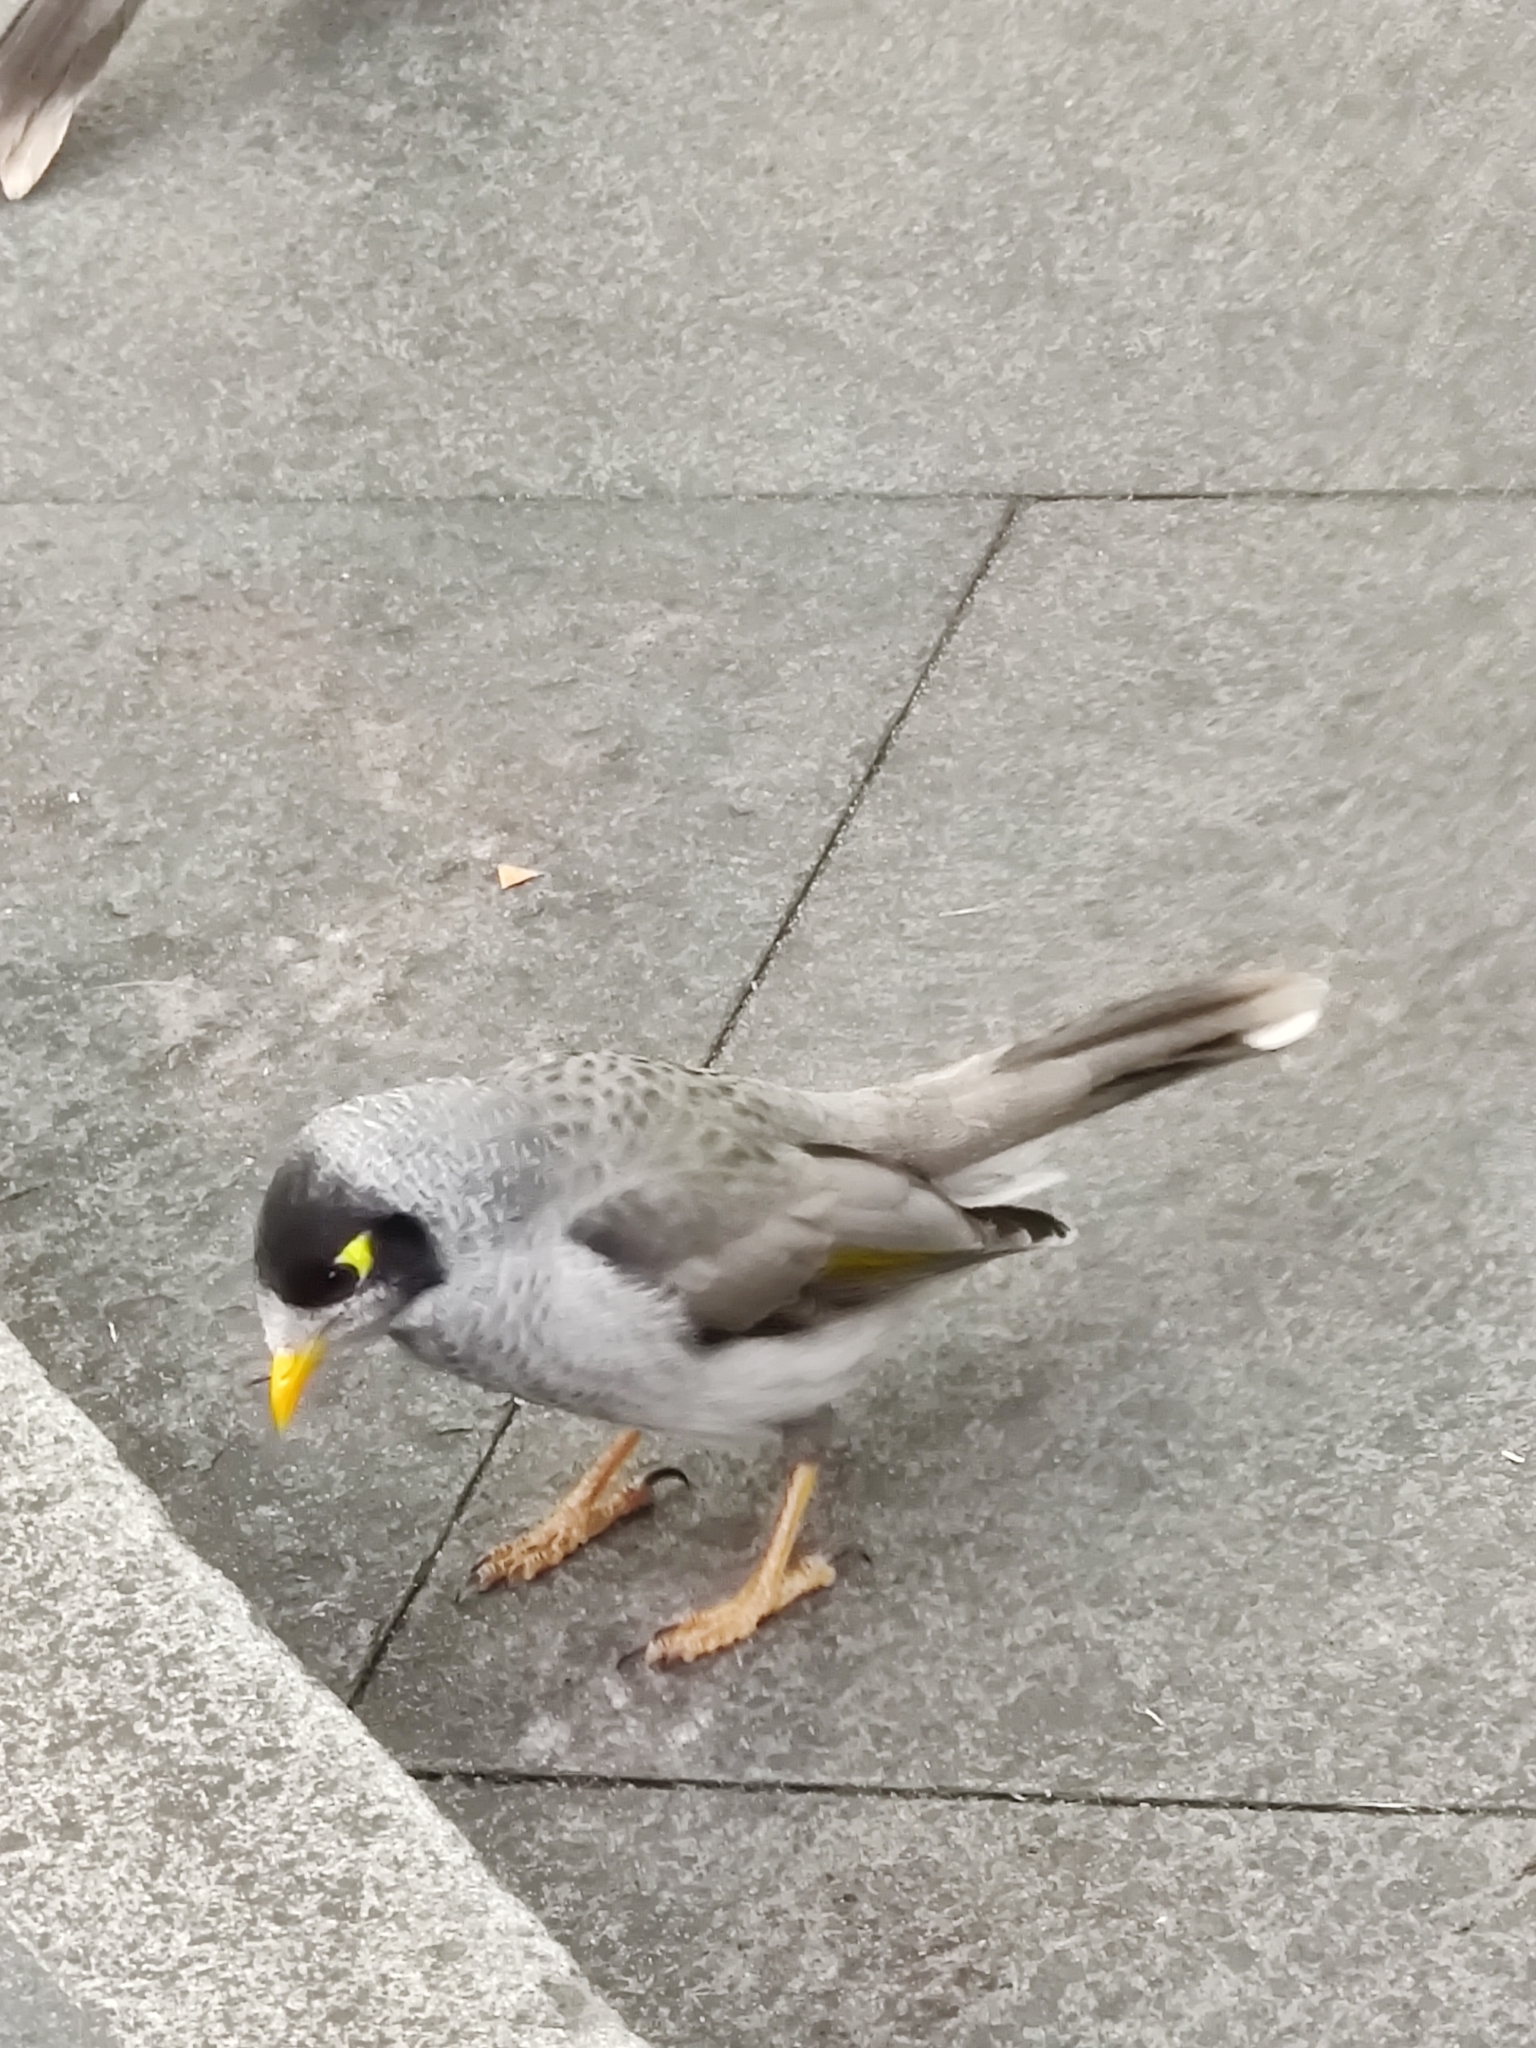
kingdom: Animalia
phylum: Chordata
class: Aves
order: Passeriformes
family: Meliphagidae
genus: Manorina
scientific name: Manorina melanocephala
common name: Noisy miner
